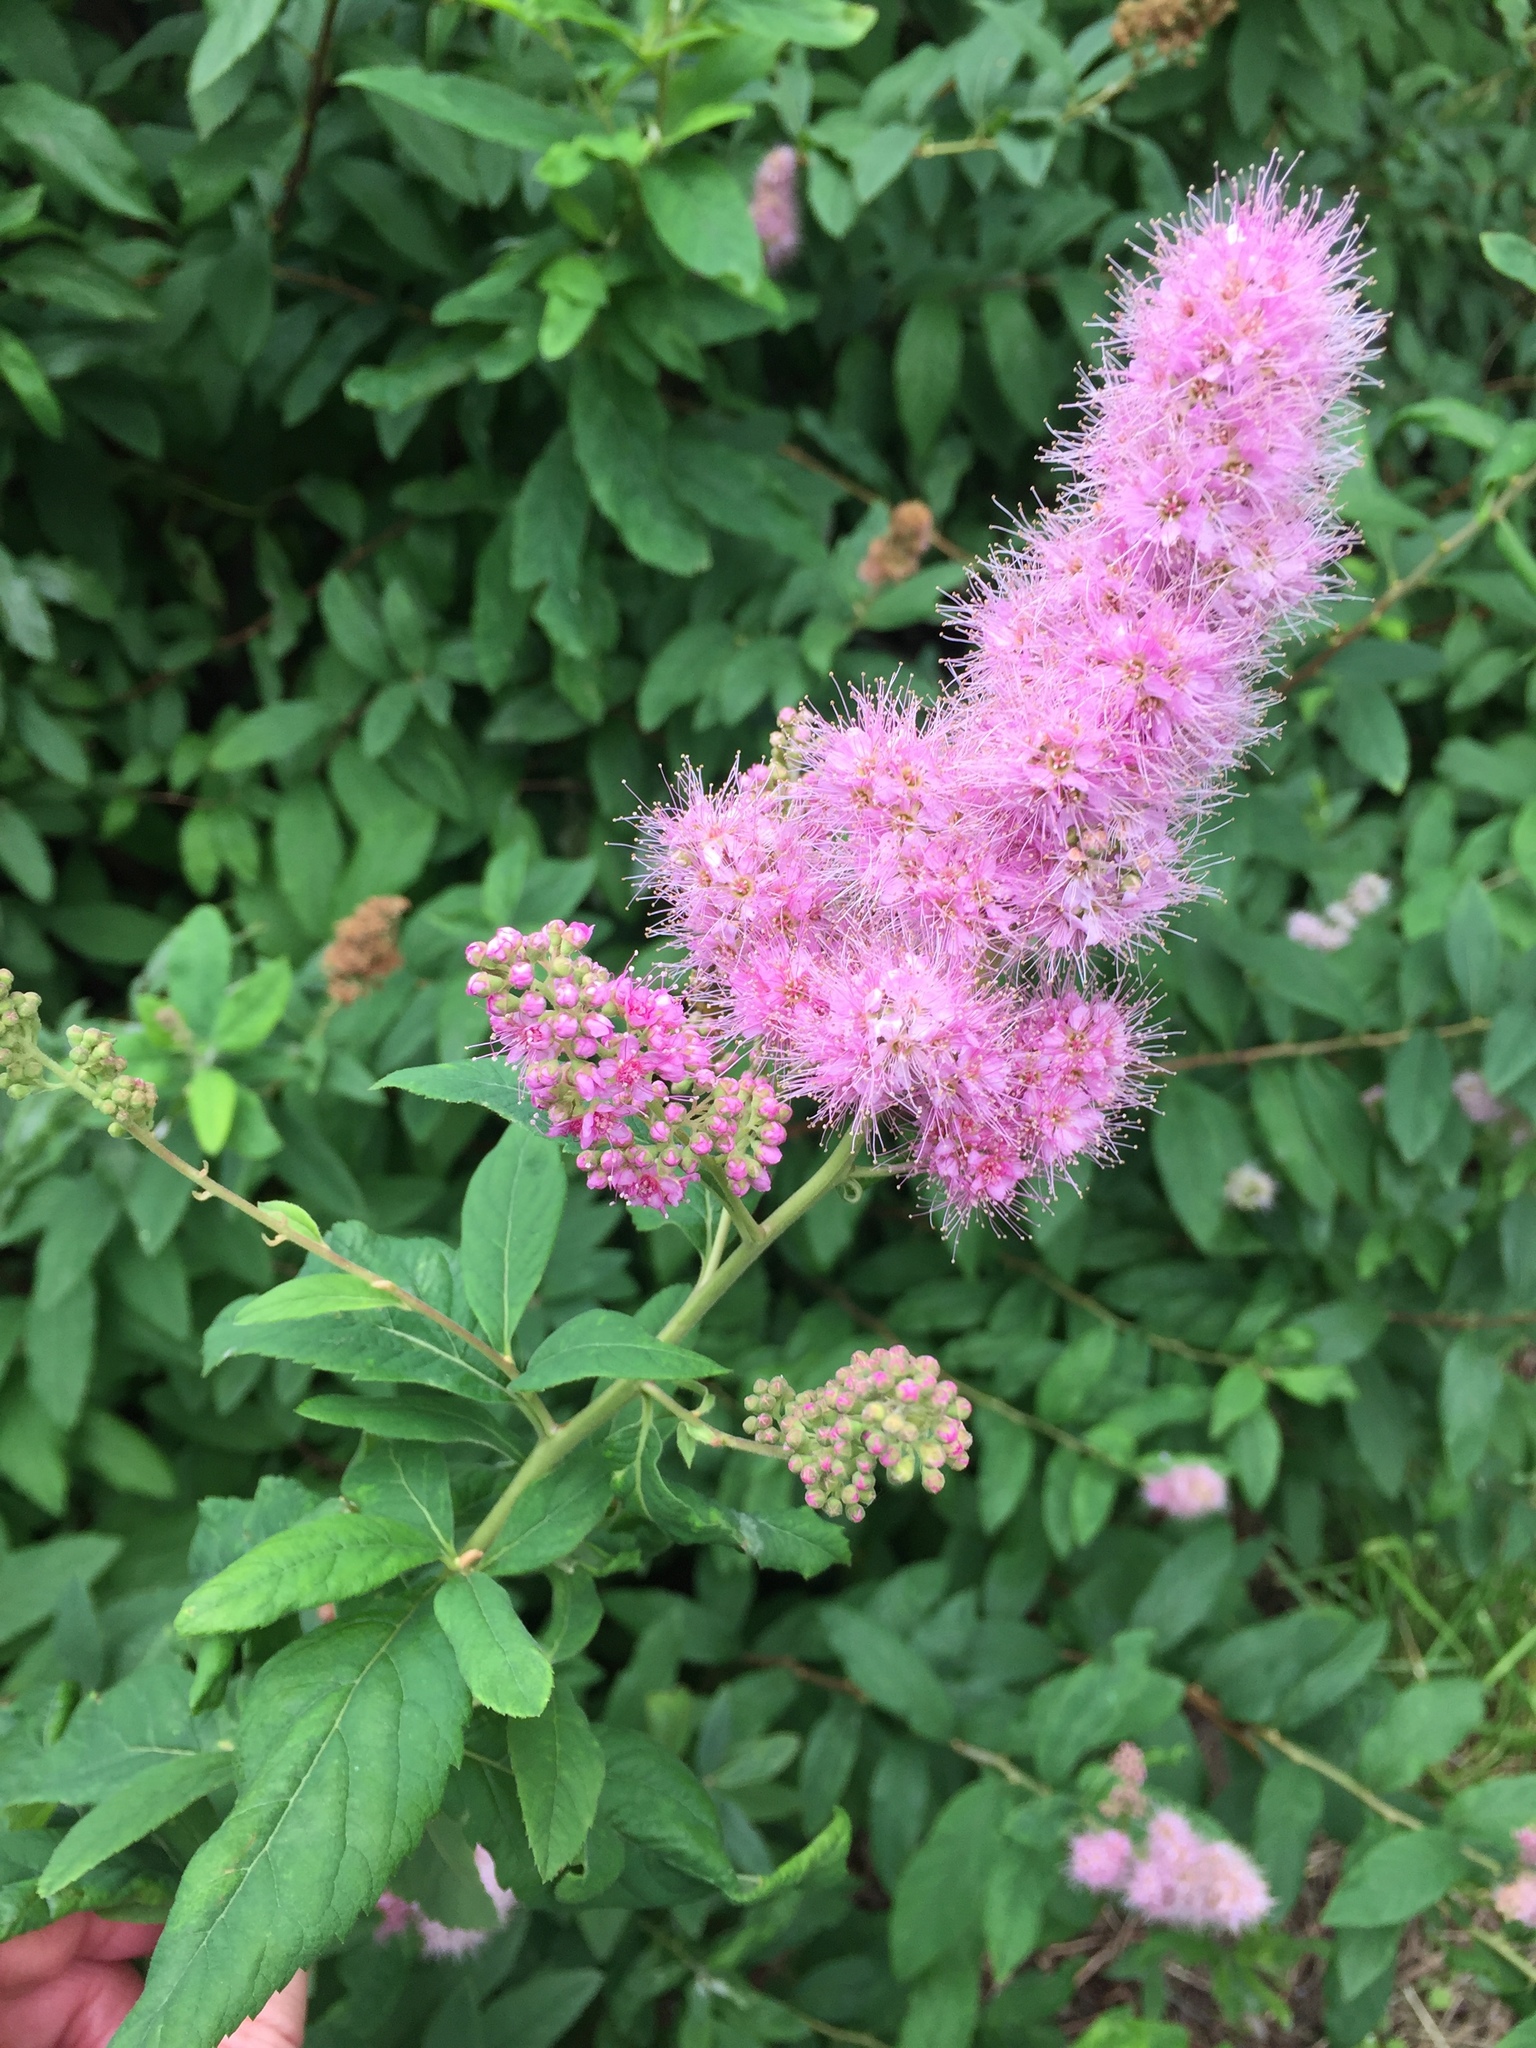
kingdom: Plantae
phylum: Tracheophyta
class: Magnoliopsida
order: Rosales
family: Rosaceae
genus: Spiraea
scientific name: Spiraea douglasii
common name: Steeplebush
